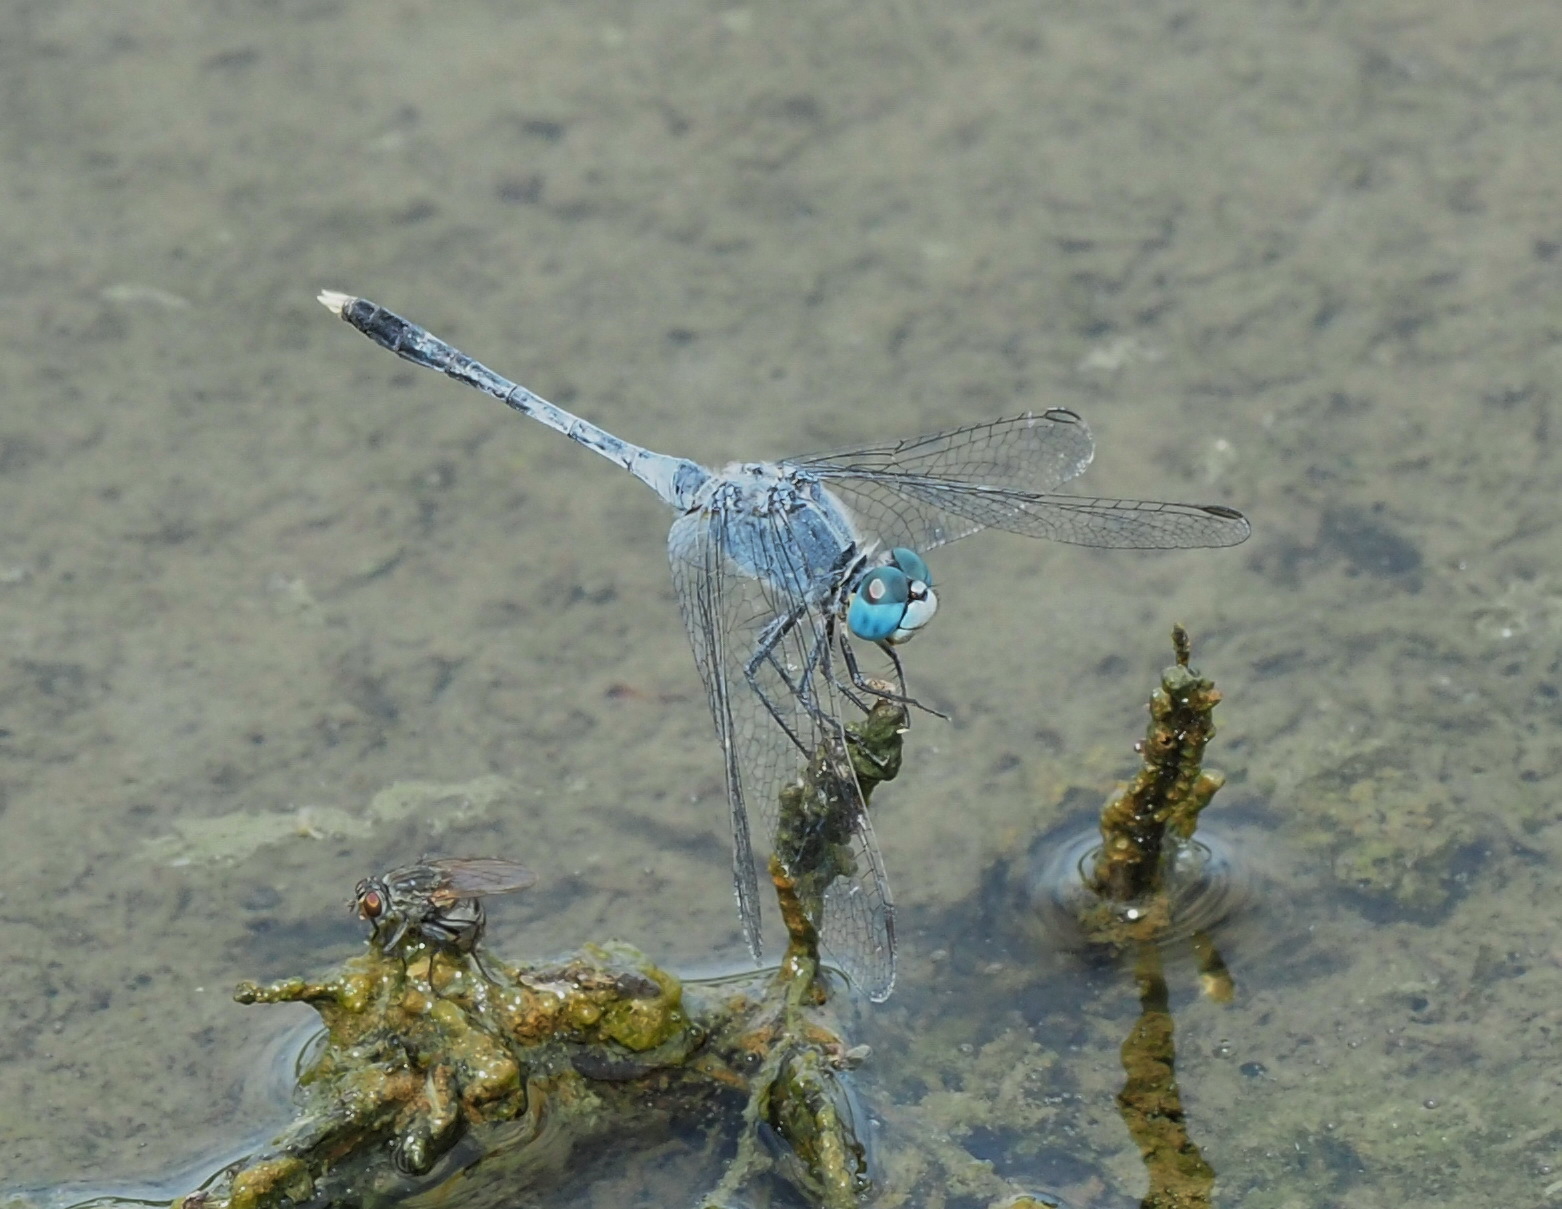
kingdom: Animalia
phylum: Arthropoda
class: Insecta
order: Odonata
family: Libellulidae
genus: Diplacodes
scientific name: Diplacodes trivialis
